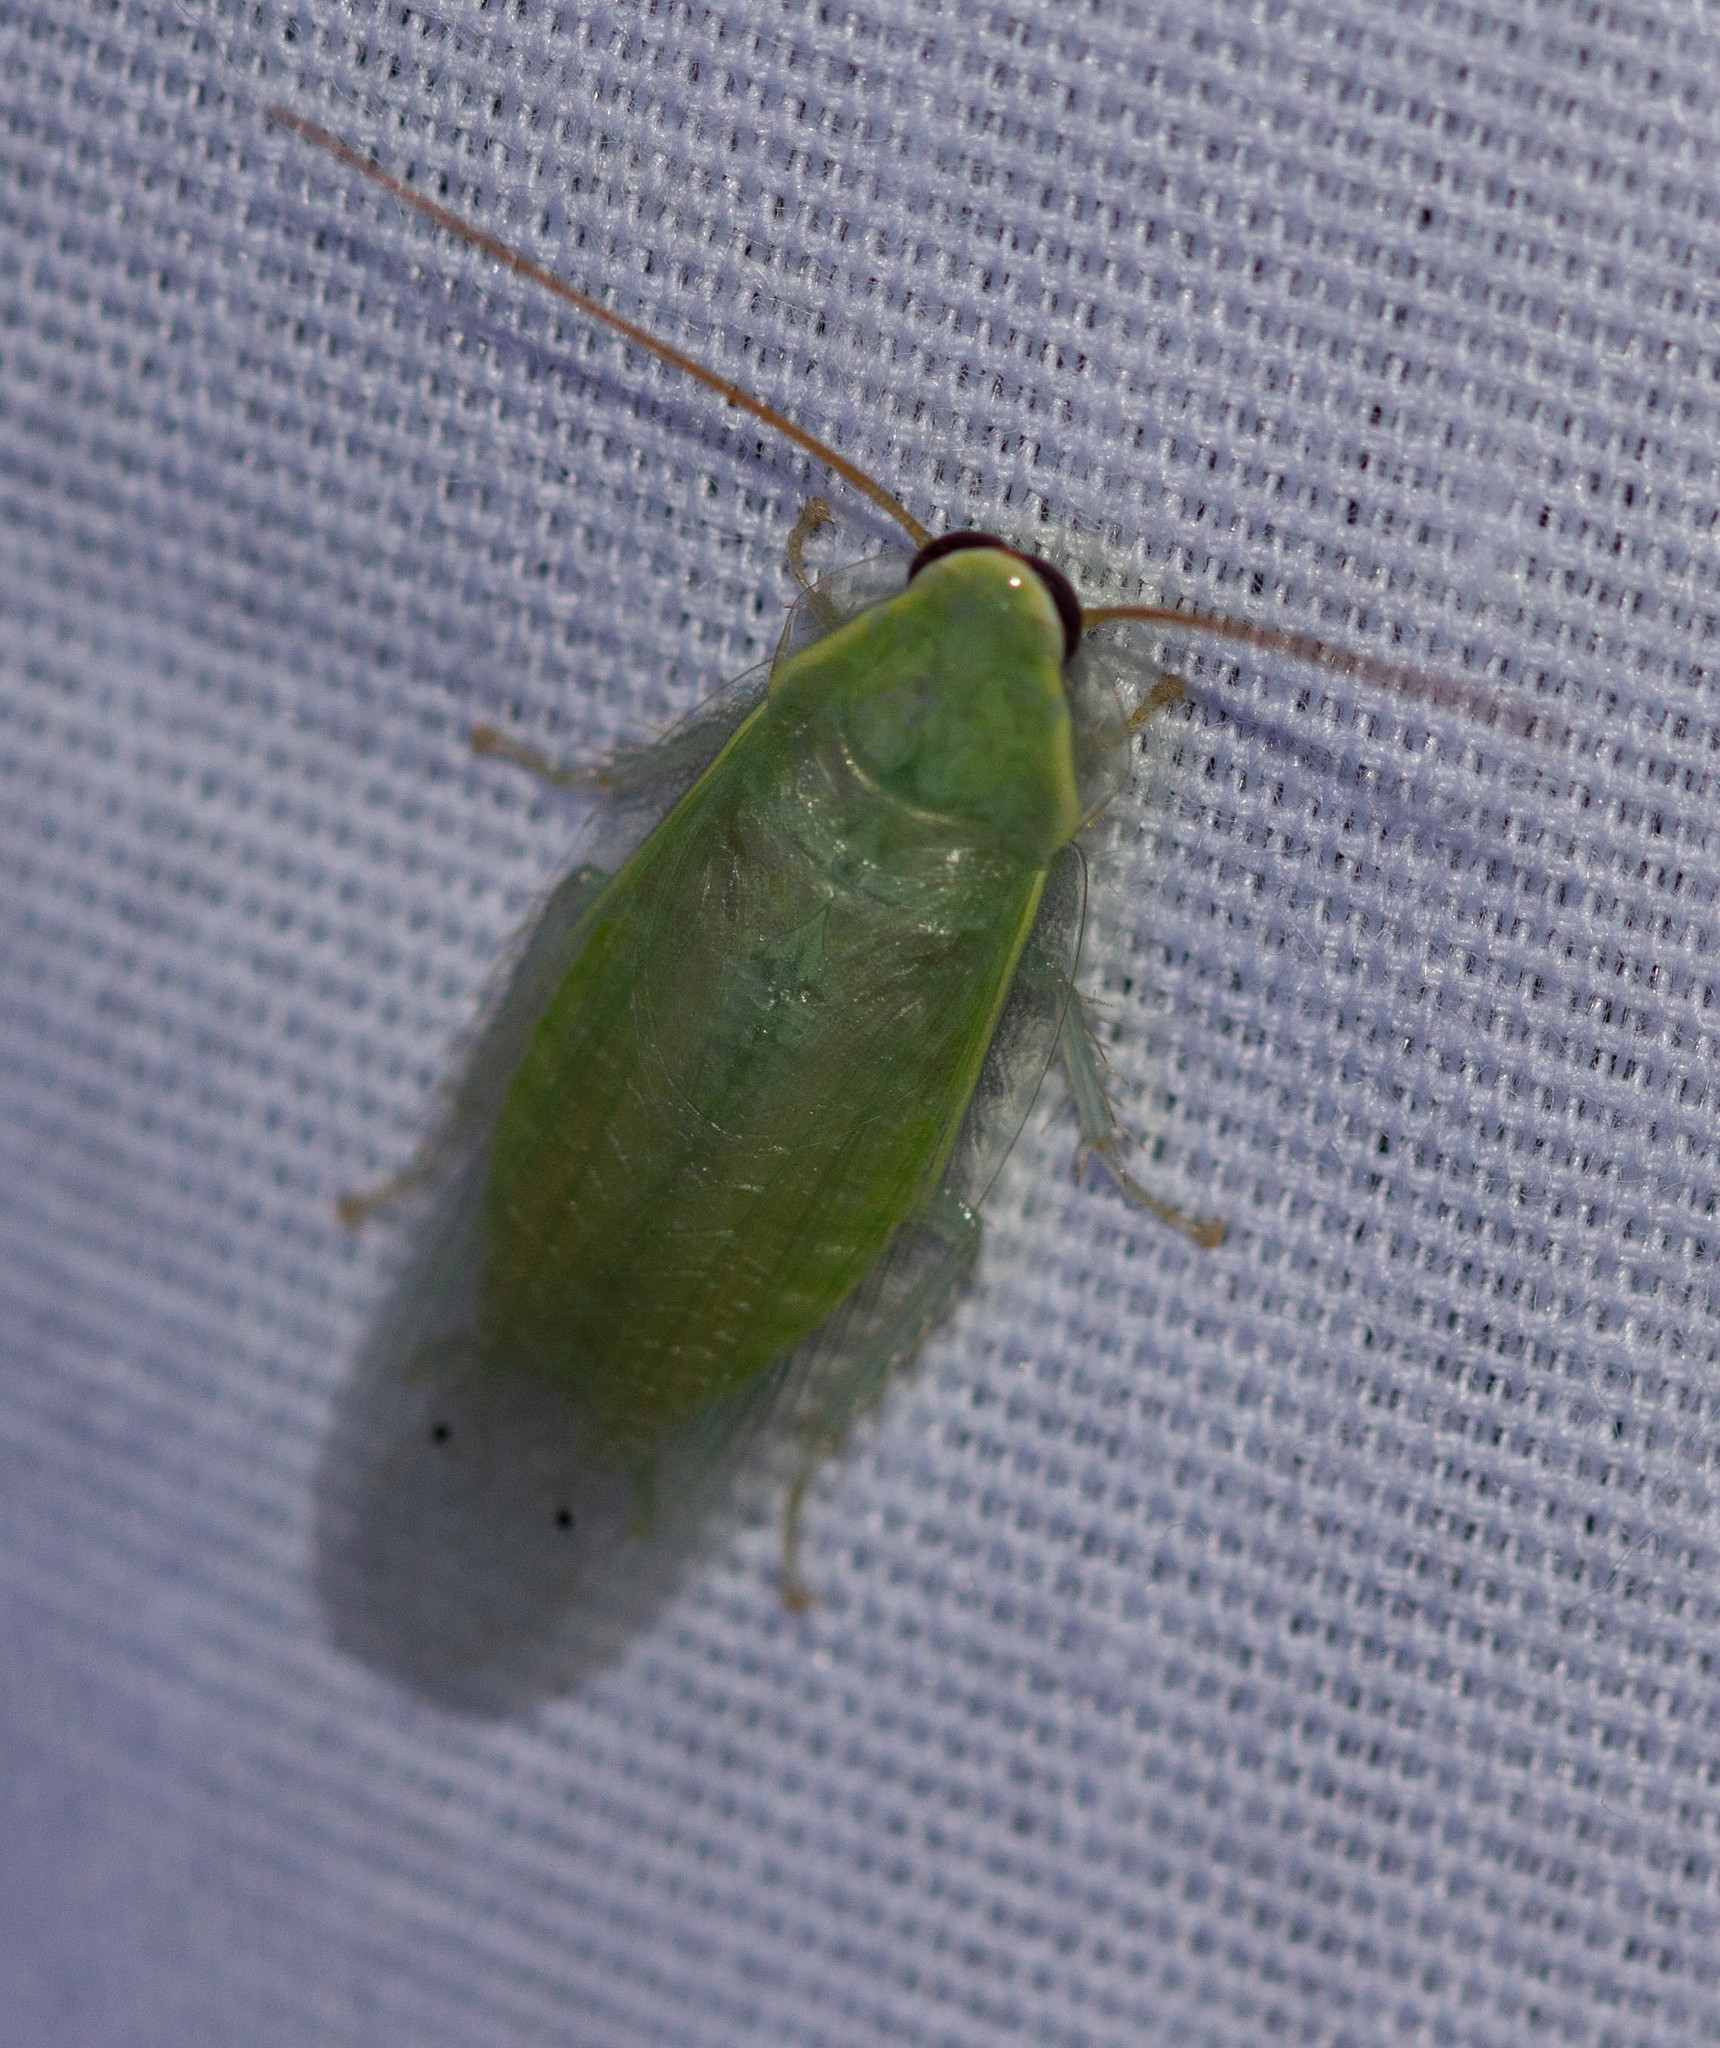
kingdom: Animalia
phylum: Arthropoda
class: Insecta
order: Blattodea
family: Blaberidae
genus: Panchlora
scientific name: Panchlora nivea
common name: Cuban cockroach
